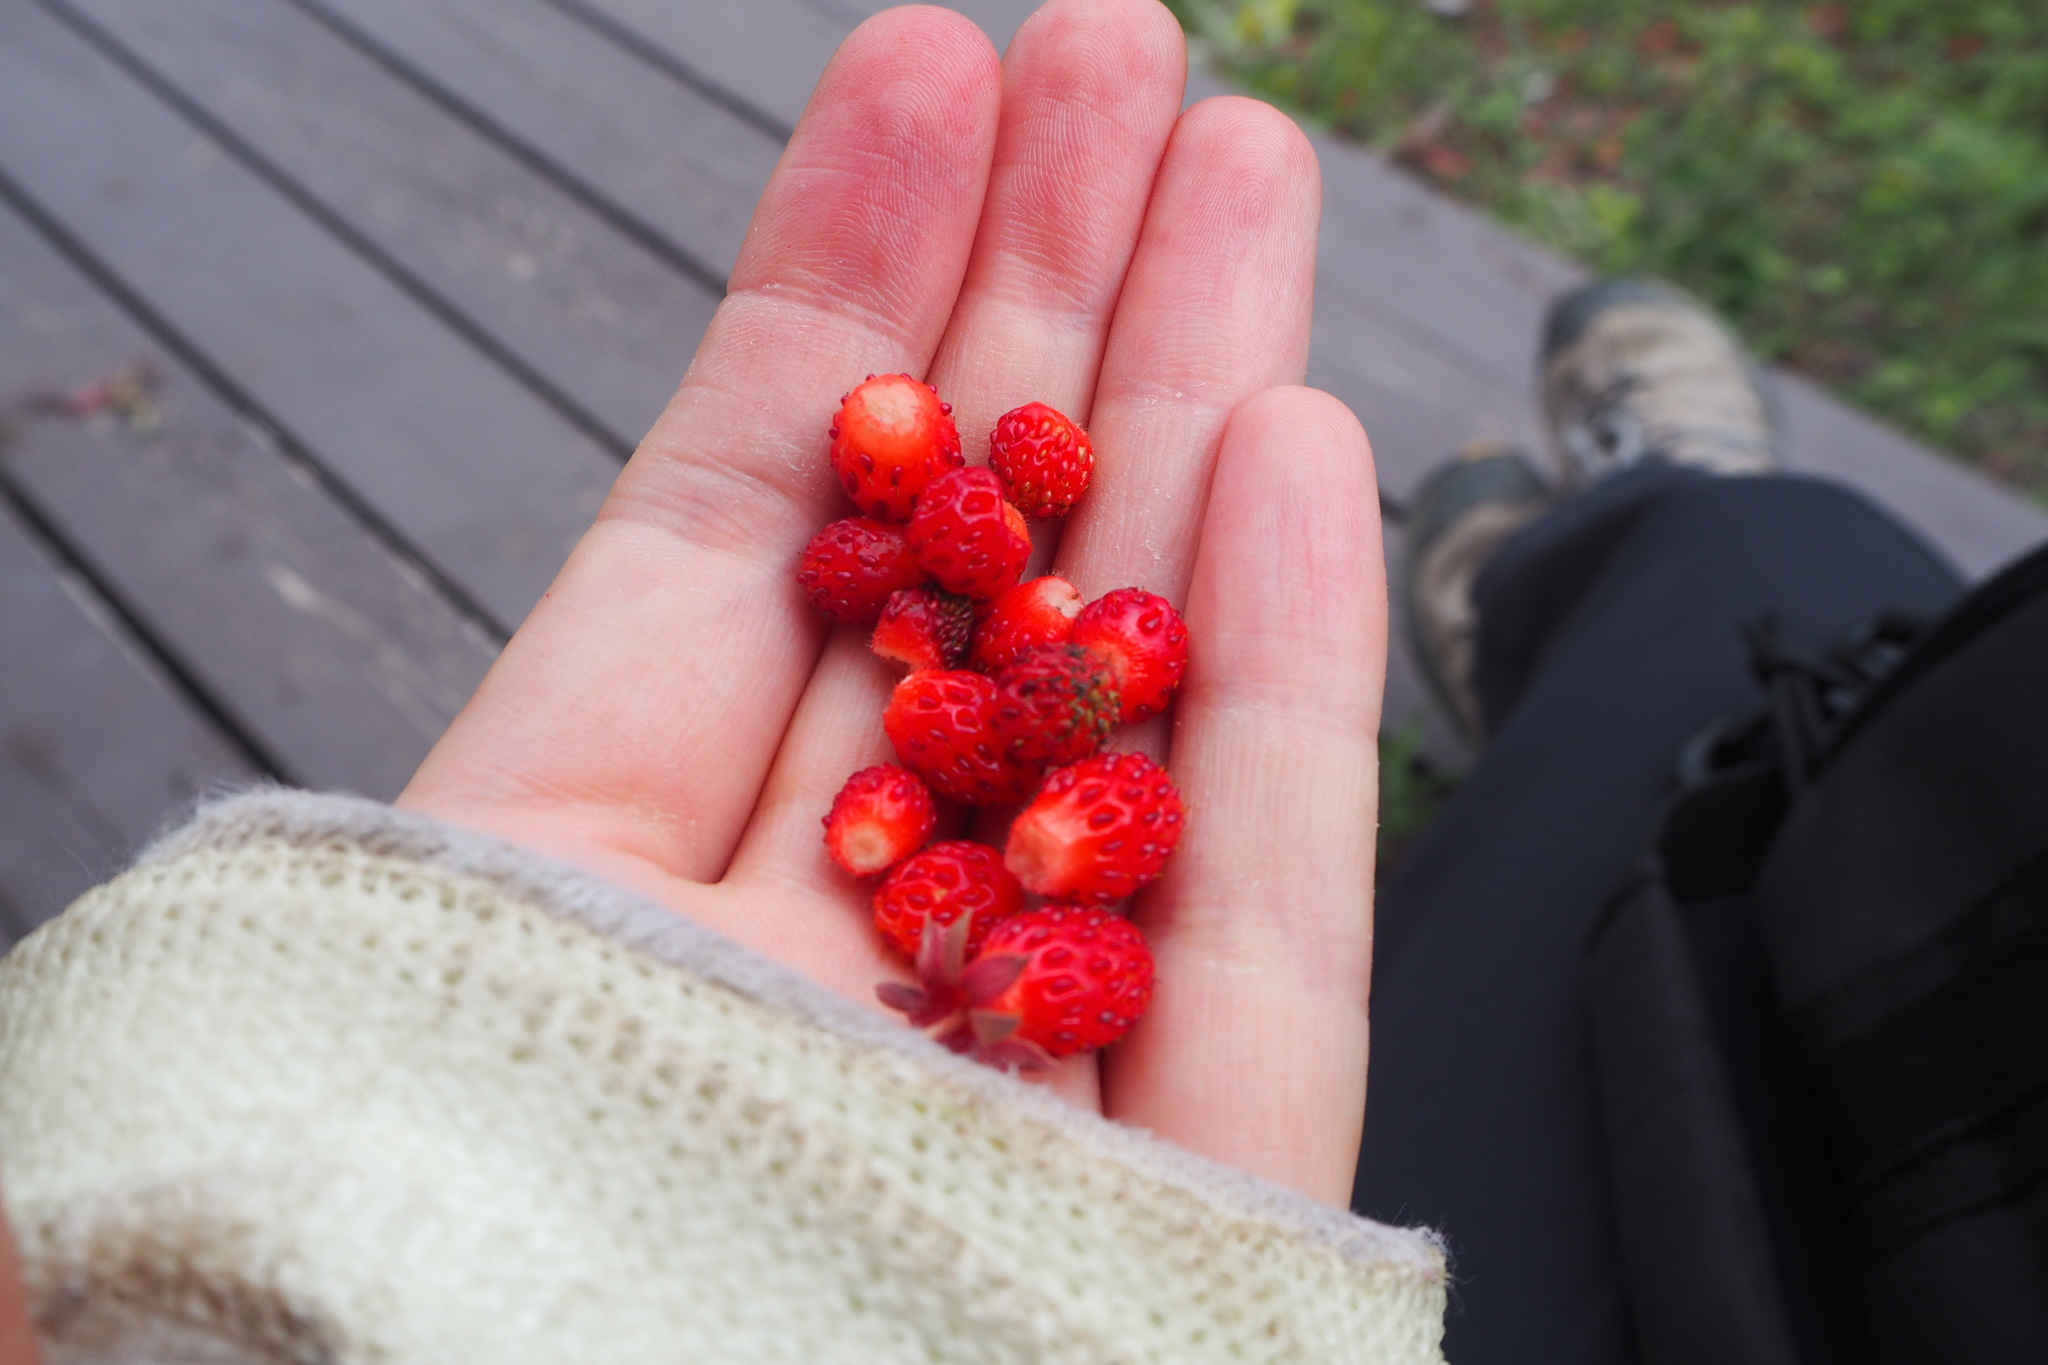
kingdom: Plantae
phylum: Tracheophyta
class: Magnoliopsida
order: Rosales
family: Rosaceae
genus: Fragaria
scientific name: Fragaria virginiana
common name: Thickleaved wild strawberry
